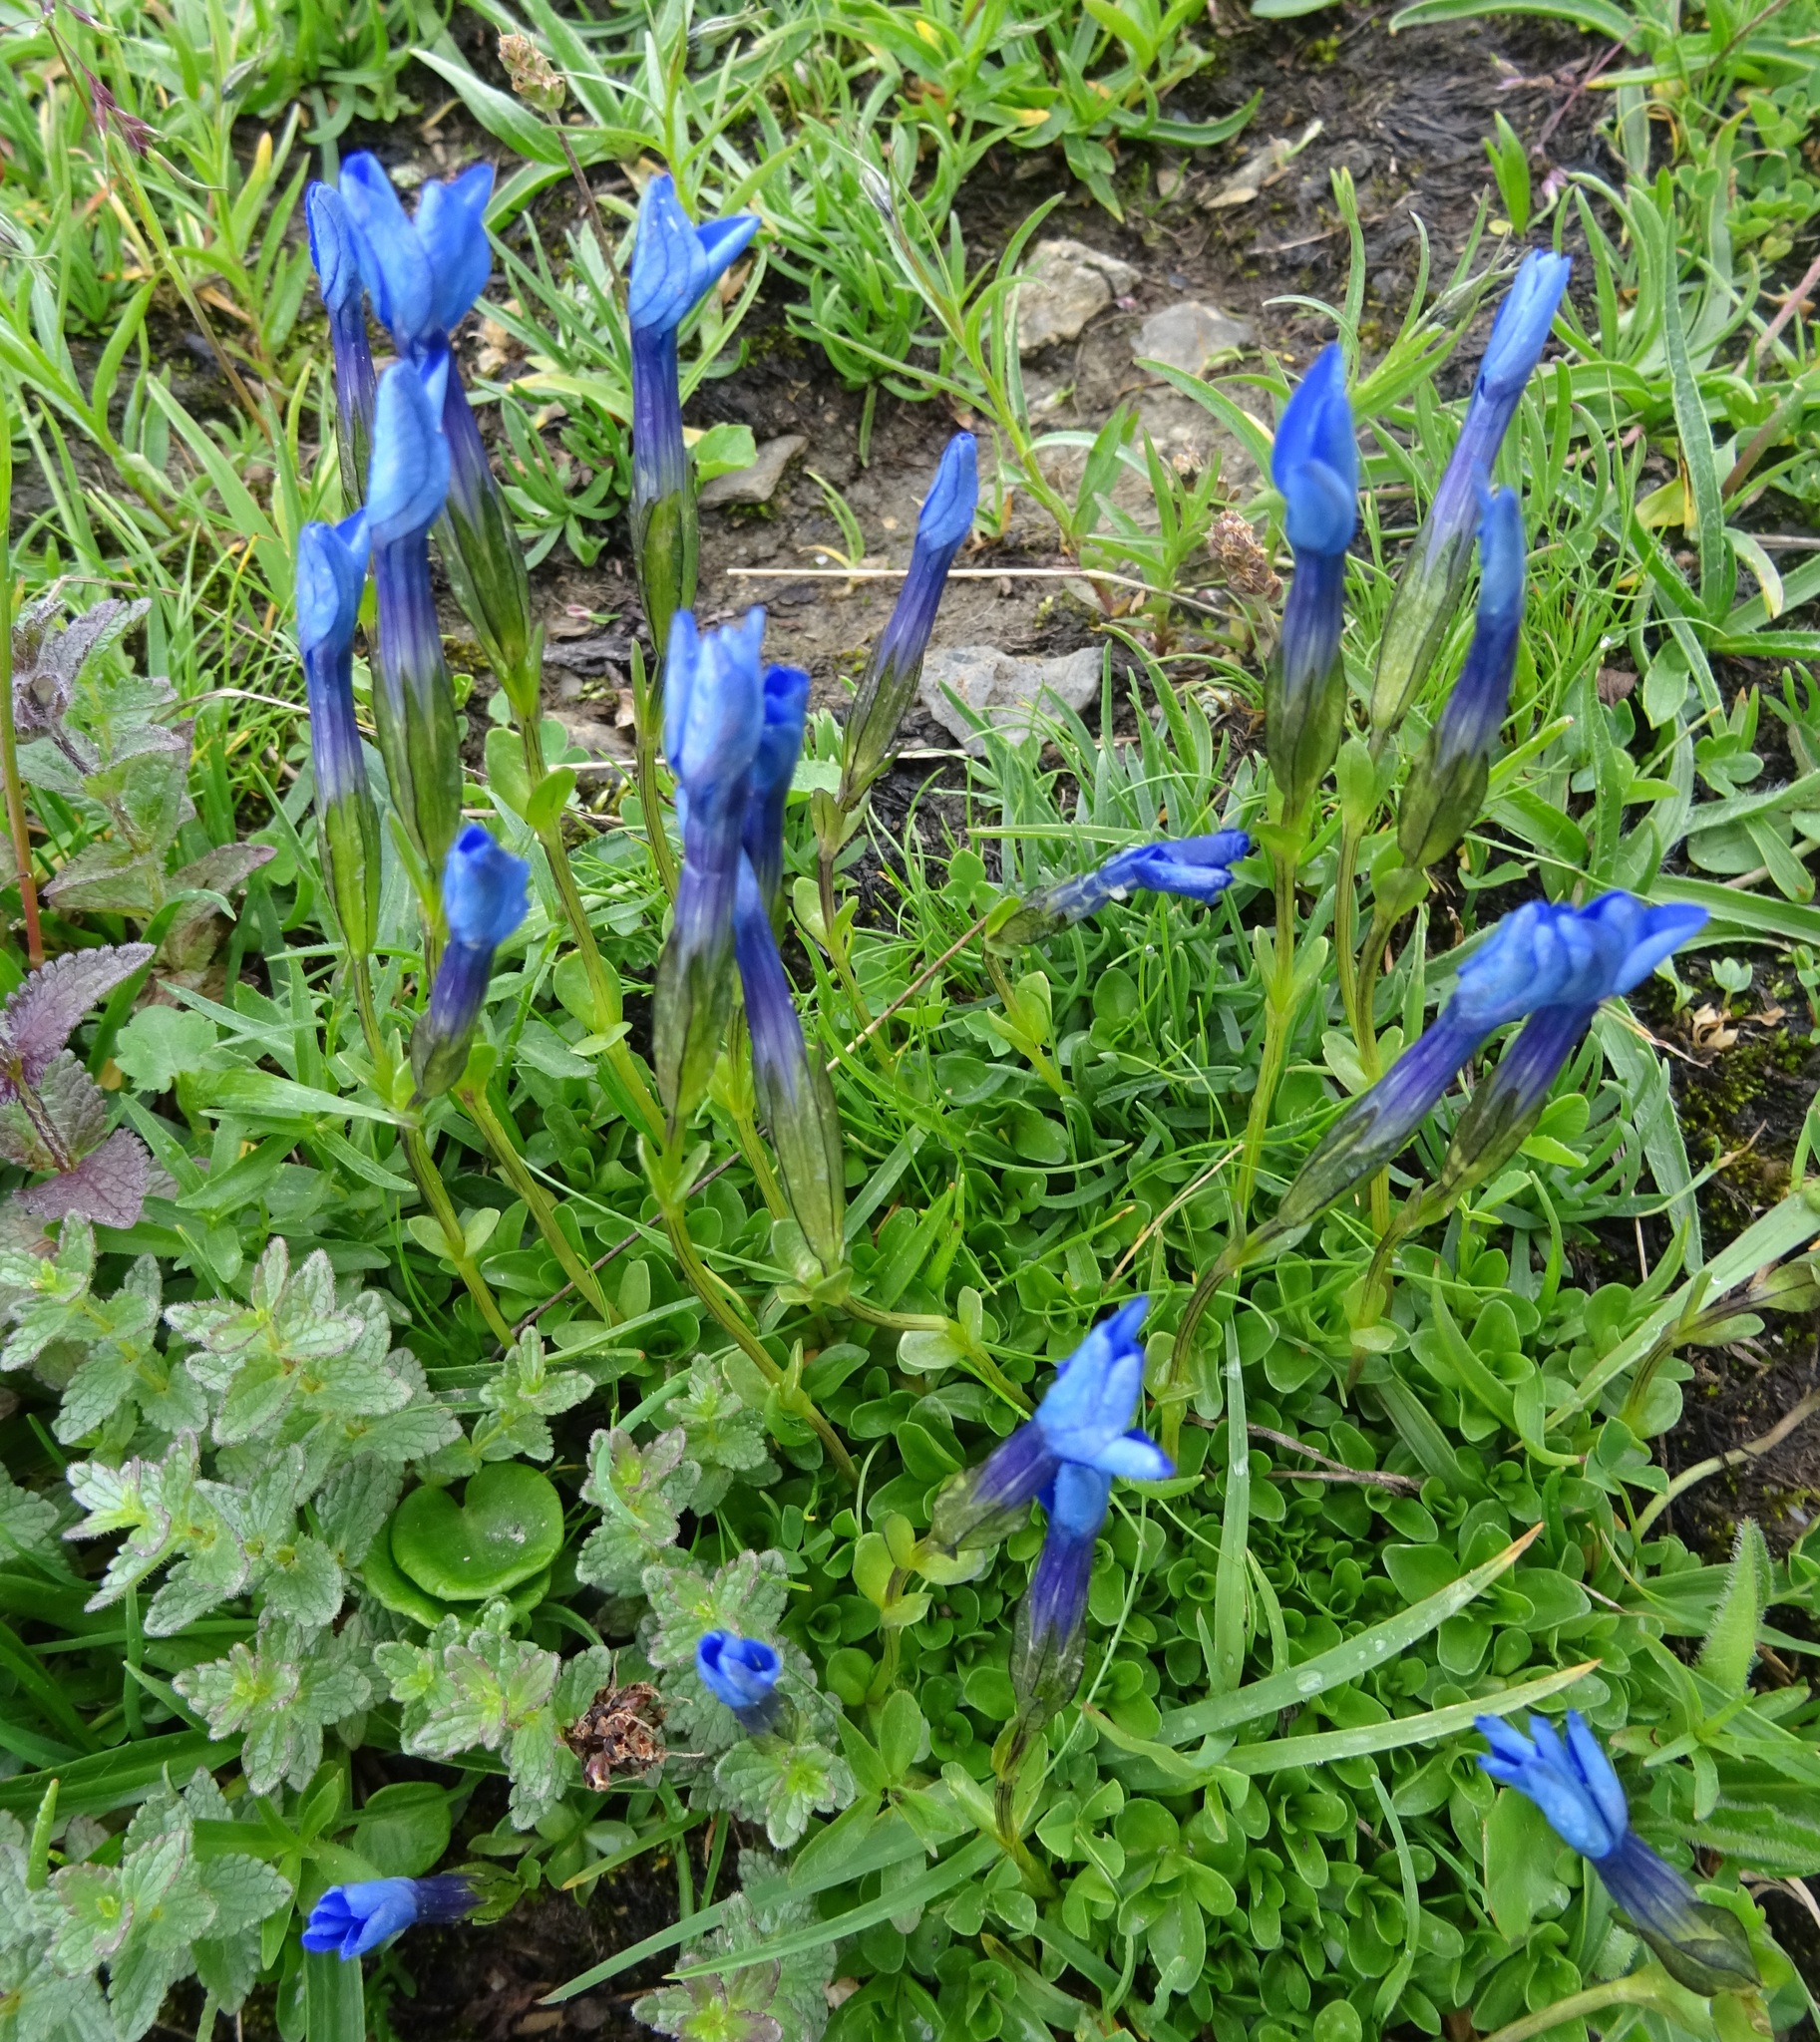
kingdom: Plantae
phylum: Tracheophyta
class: Magnoliopsida
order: Gentianales
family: Gentianaceae
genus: Gentiana
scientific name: Gentiana bavarica
